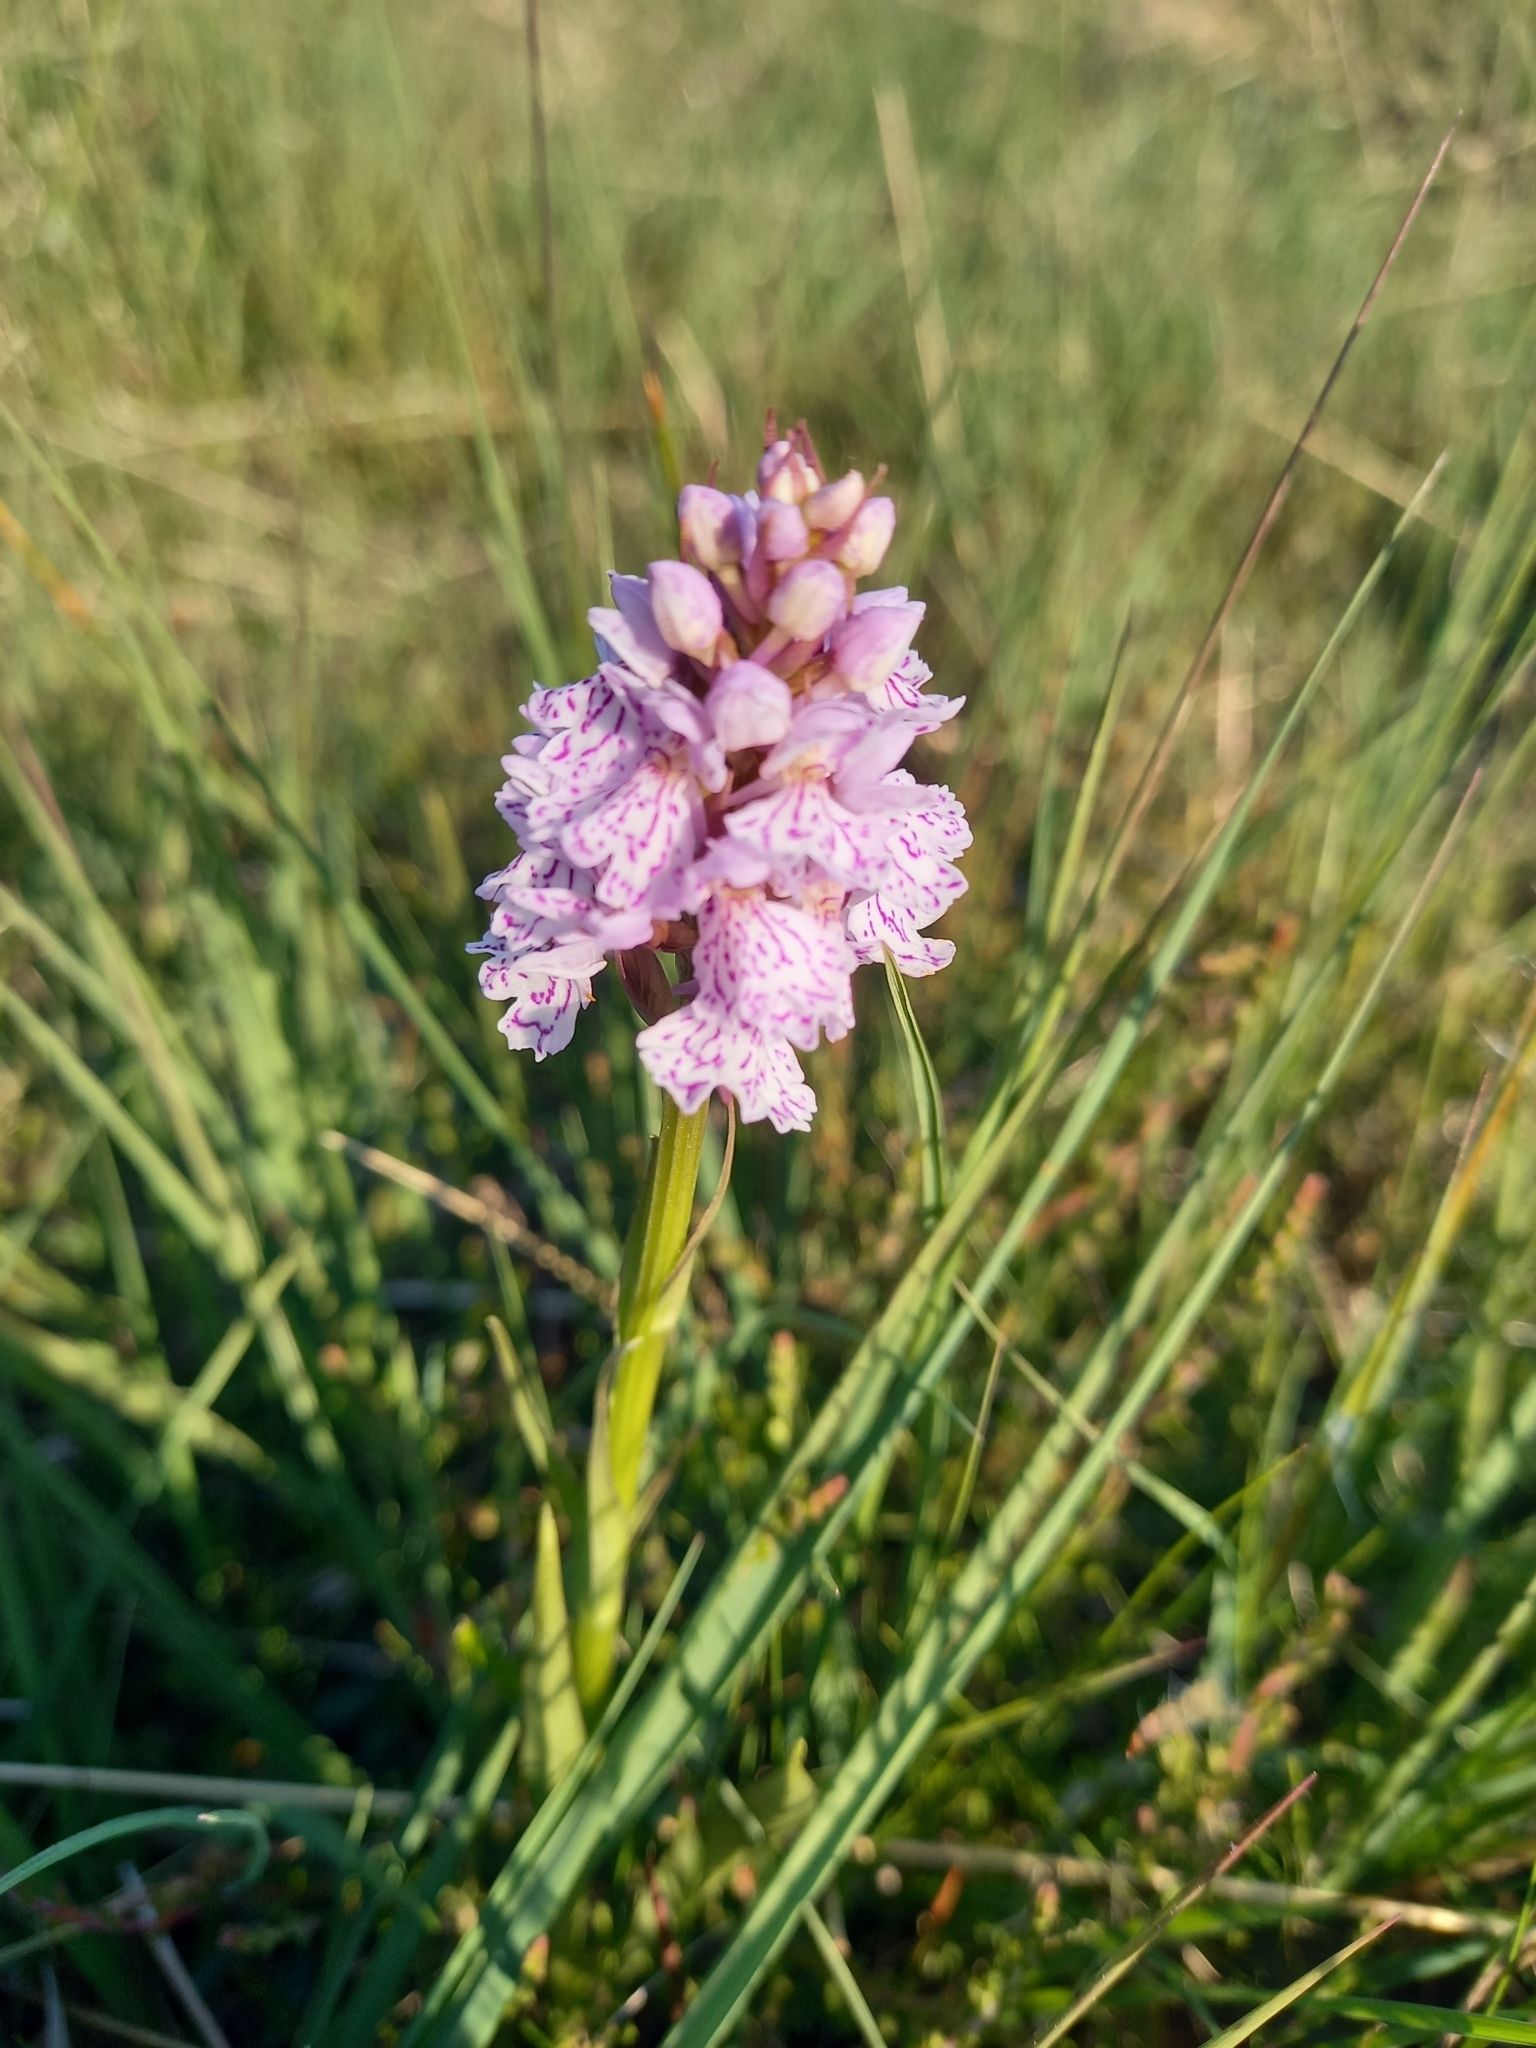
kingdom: Plantae
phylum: Tracheophyta
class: Liliopsida
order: Asparagales
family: Orchidaceae
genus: Dactylorhiza
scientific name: Dactylorhiza maculata
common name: Heath spotted-orchid
